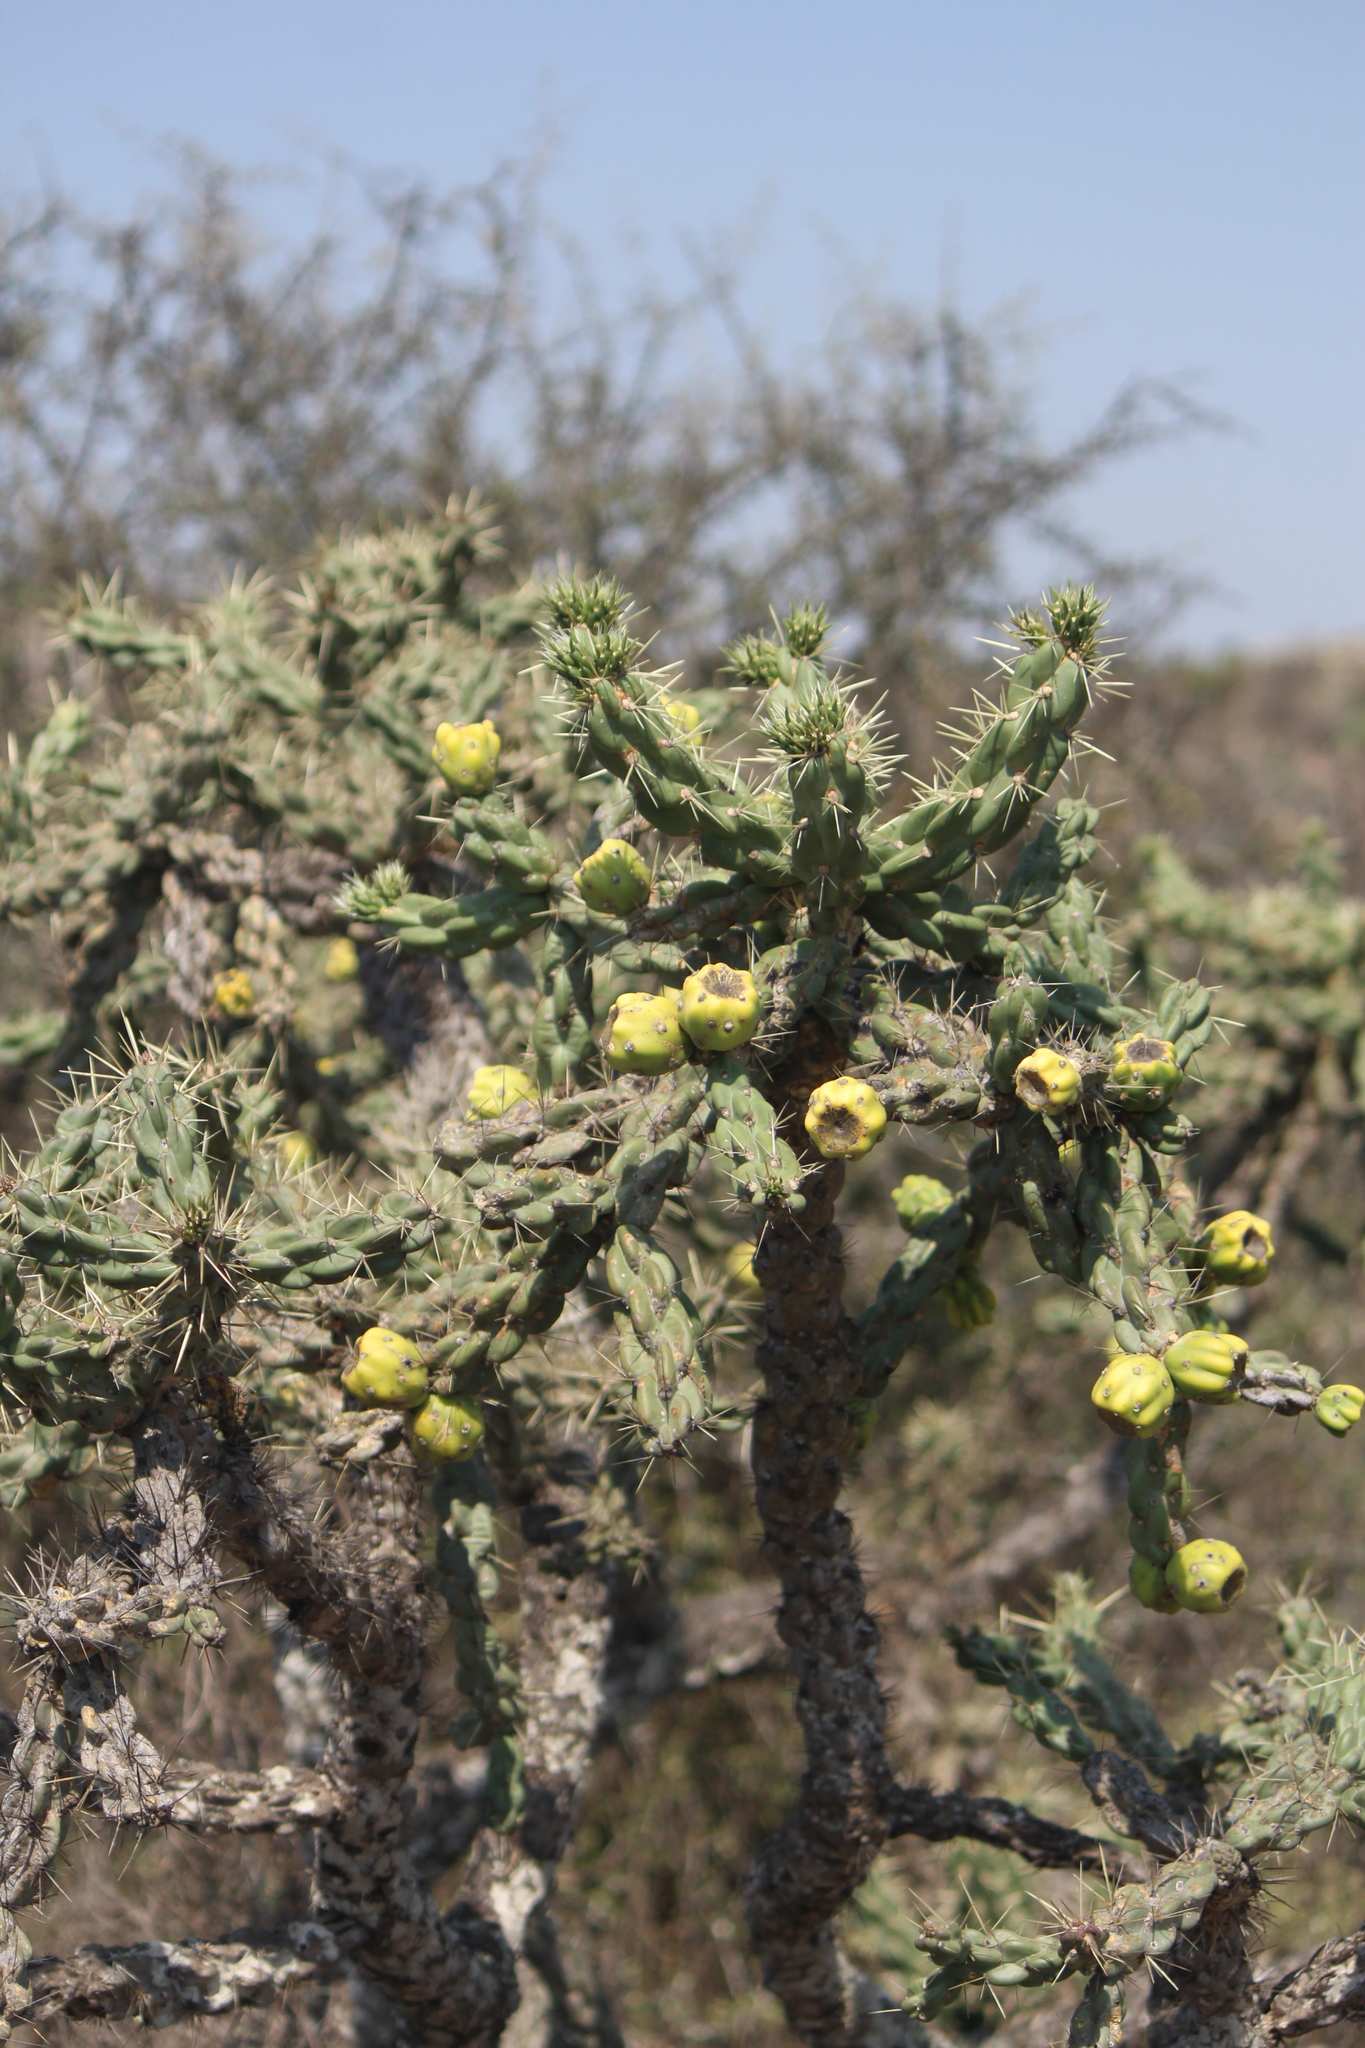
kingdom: Plantae
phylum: Tracheophyta
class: Magnoliopsida
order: Caryophyllales
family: Cactaceae
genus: Cylindropuntia
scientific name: Cylindropuntia imbricata
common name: Candelabrum cactus
